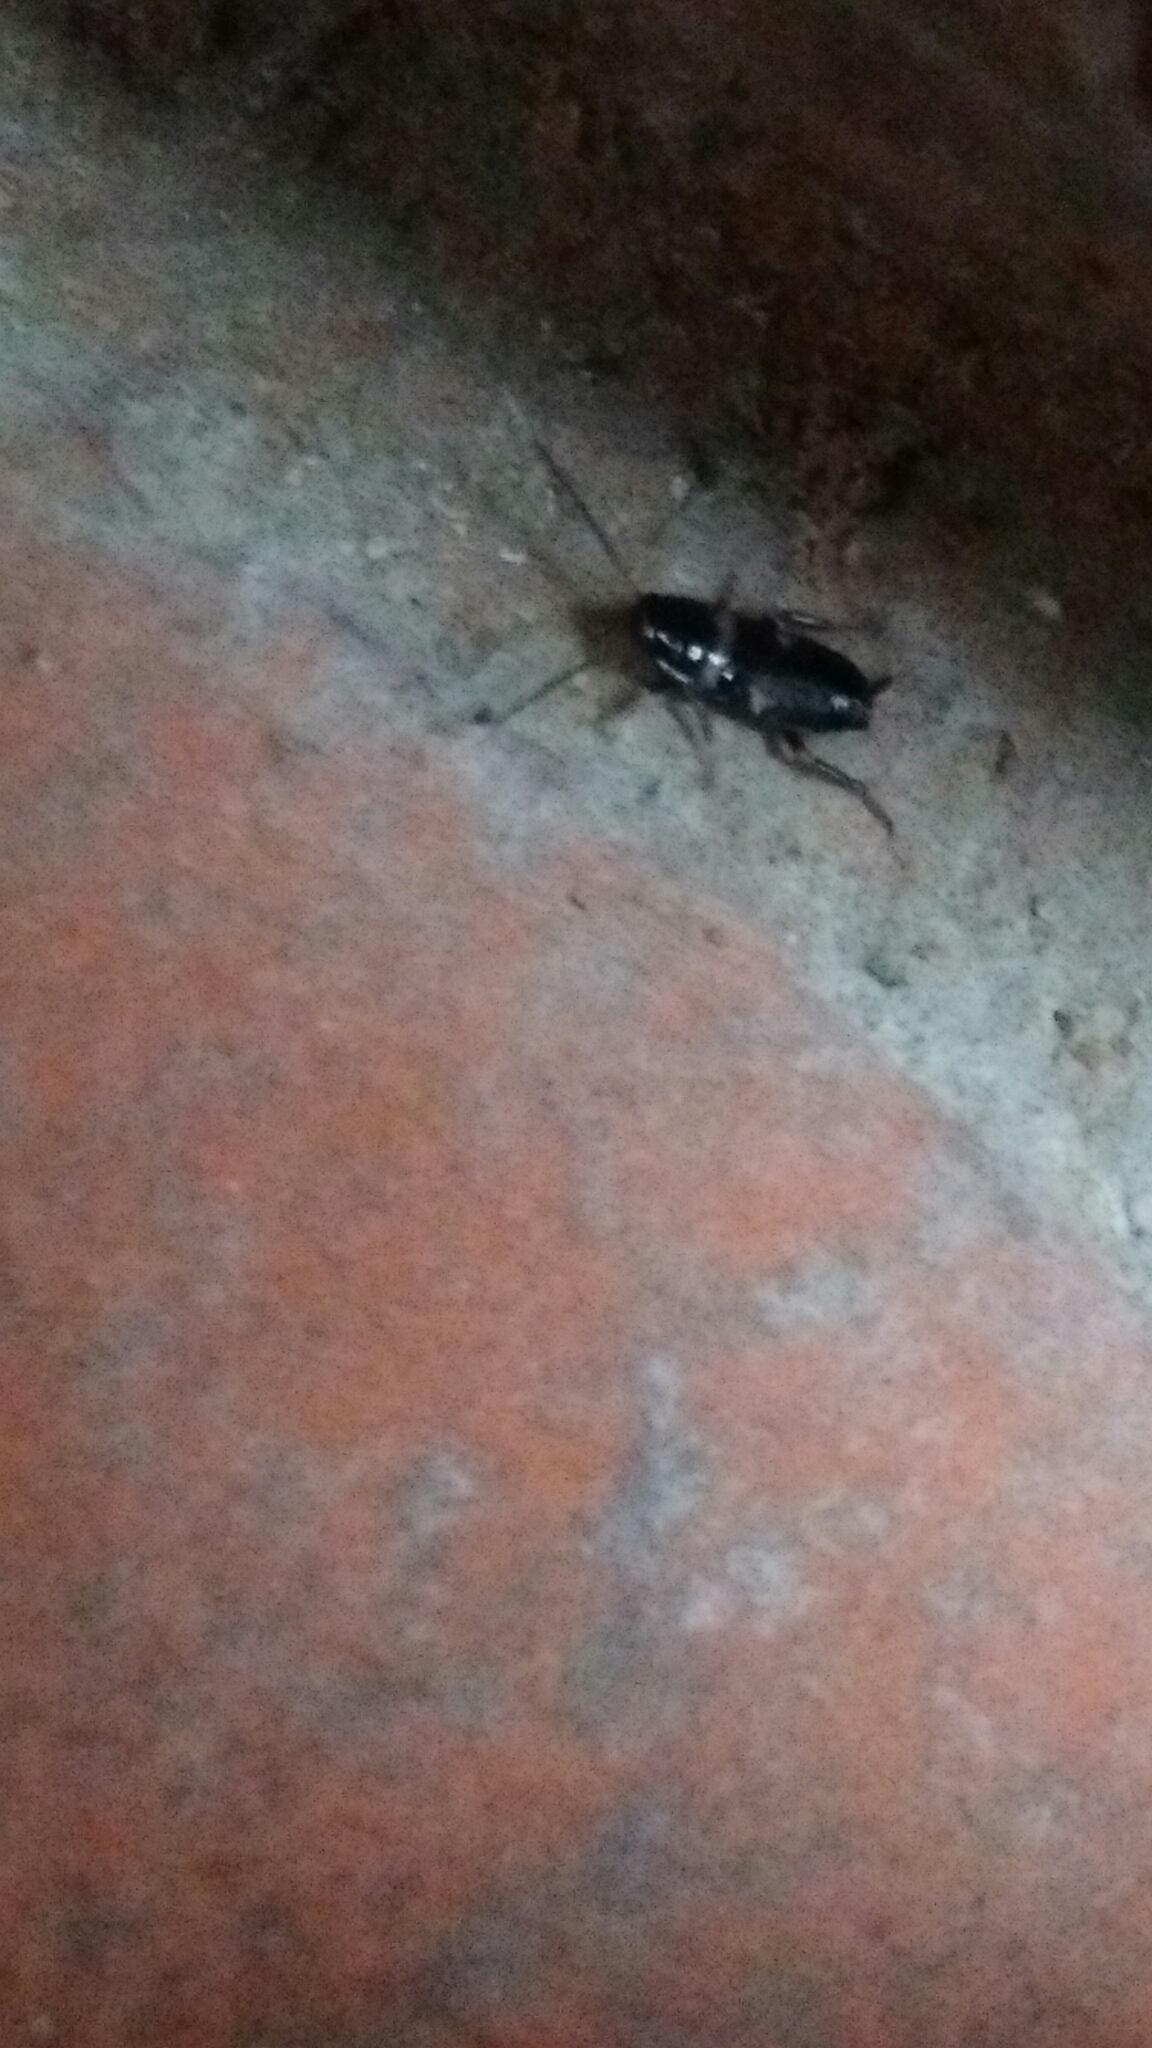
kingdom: Animalia
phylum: Arthropoda
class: Insecta
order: Blattodea
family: Blattidae
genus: Periplaneta
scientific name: Periplaneta fuliginosa
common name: Smokeybrown cockroad
